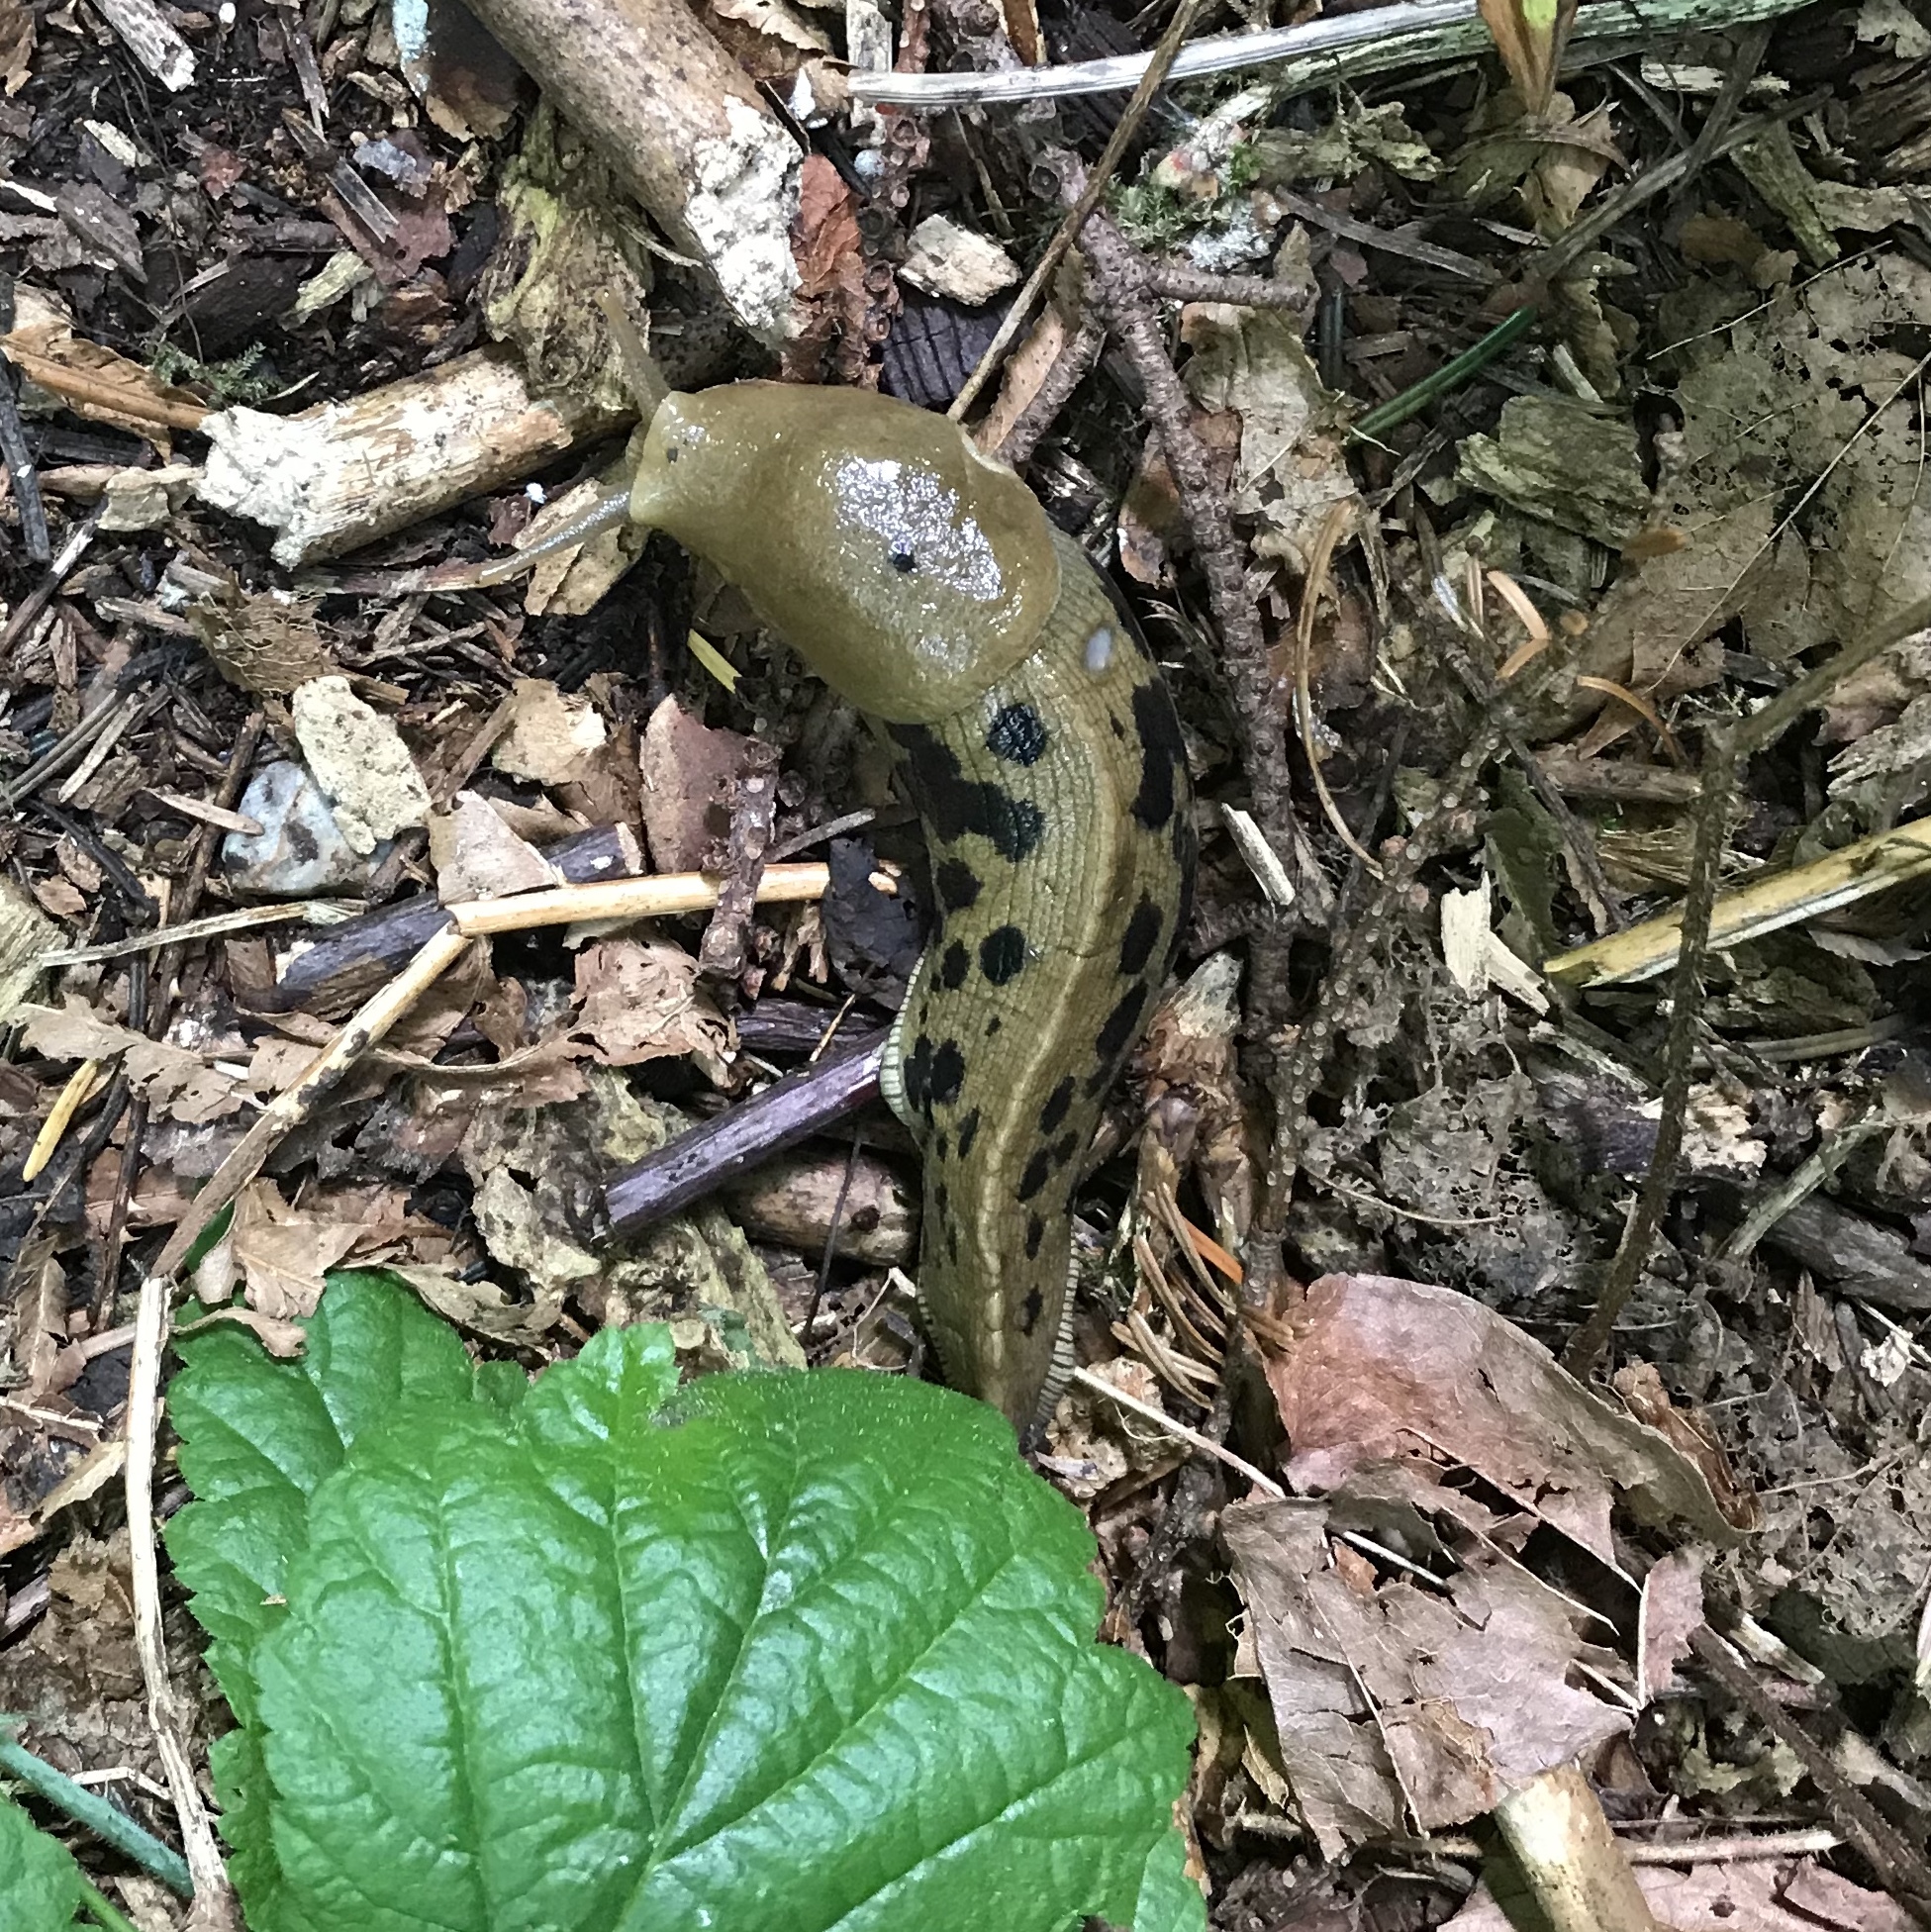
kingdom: Animalia
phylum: Mollusca
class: Gastropoda
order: Stylommatophora
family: Ariolimacidae
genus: Ariolimax
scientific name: Ariolimax columbianus
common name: Pacific banana slug
